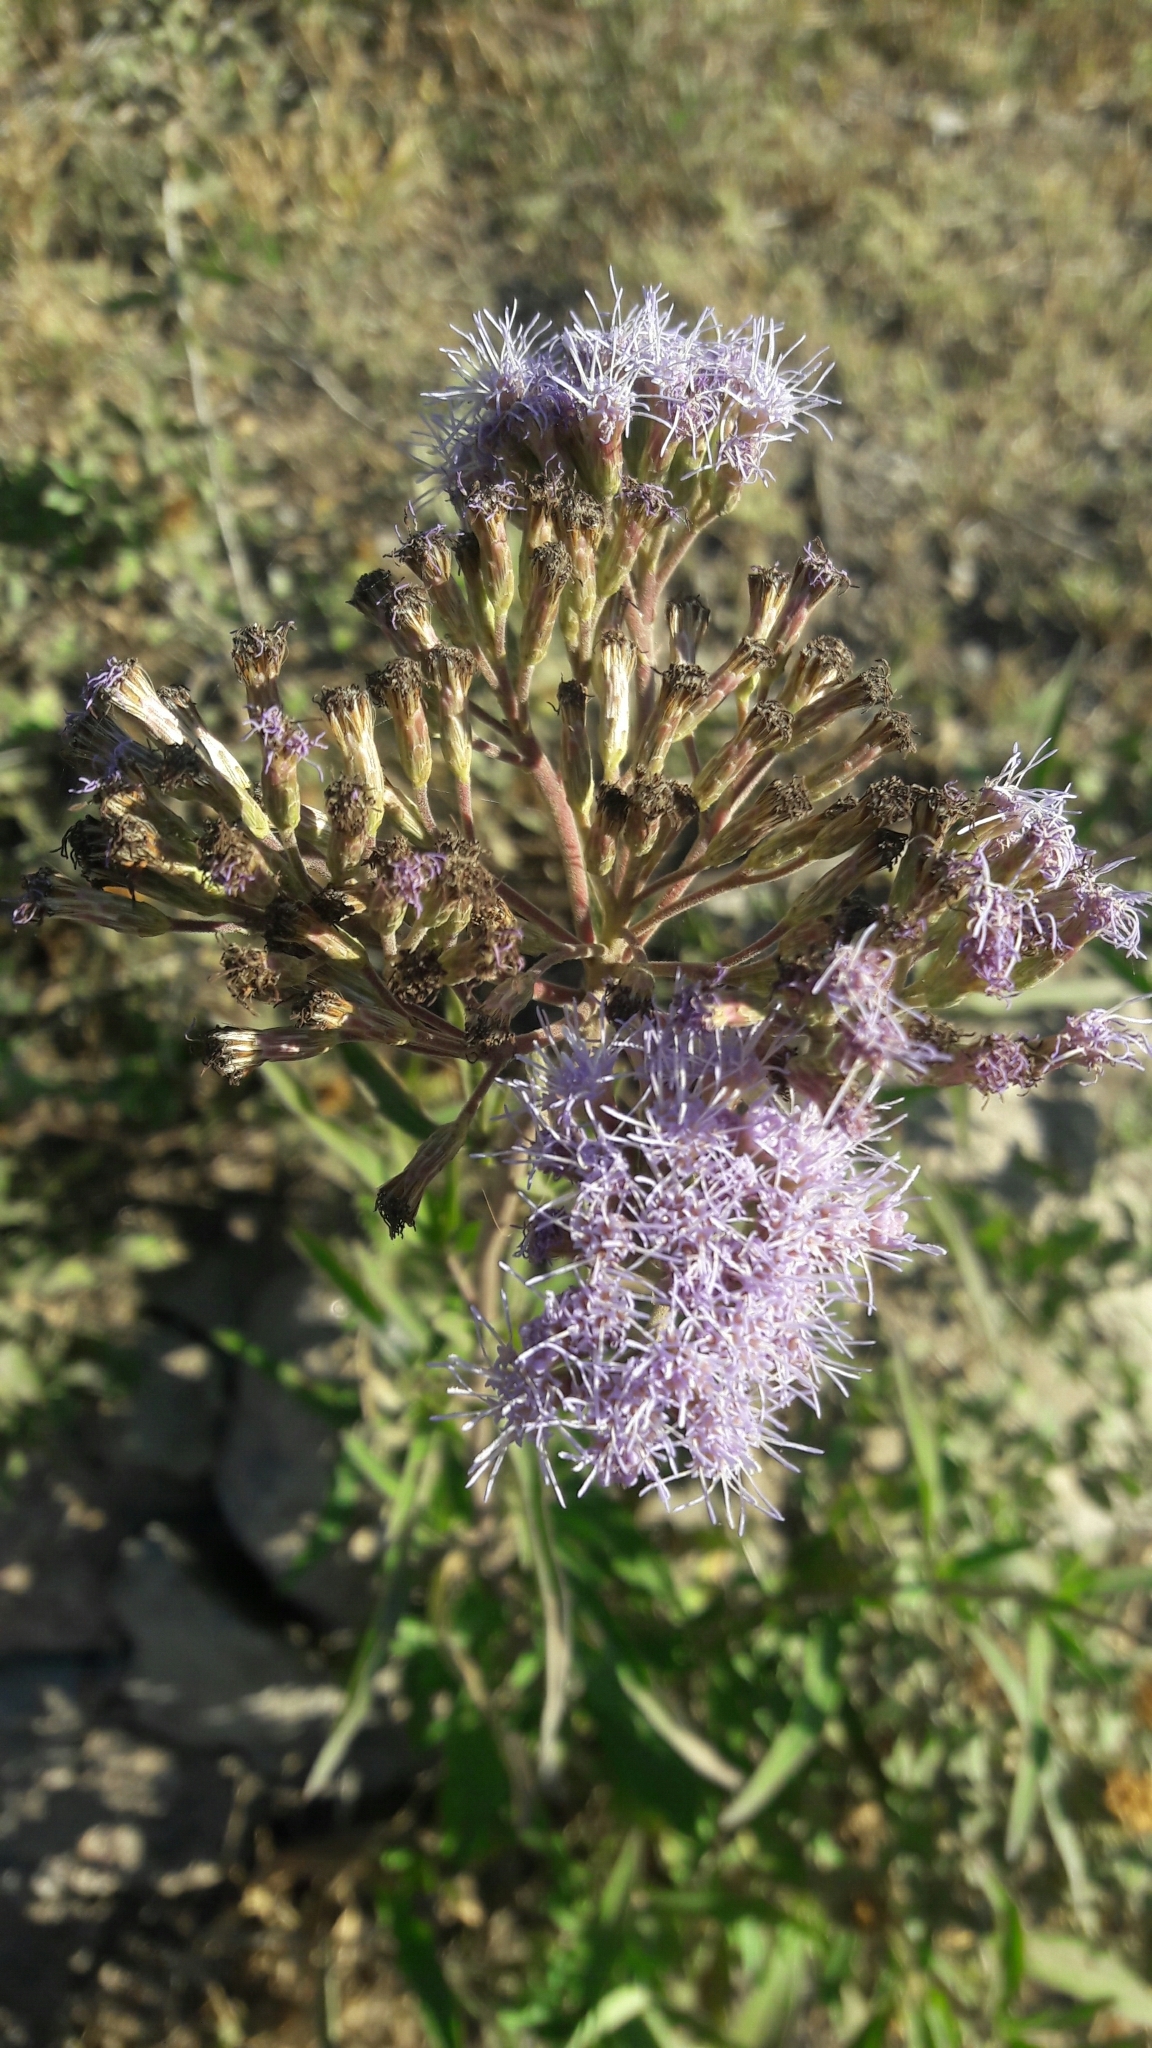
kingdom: Plantae
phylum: Tracheophyta
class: Magnoliopsida
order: Asterales
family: Asteraceae
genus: Chromolaena
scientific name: Chromolaena ivifolia
